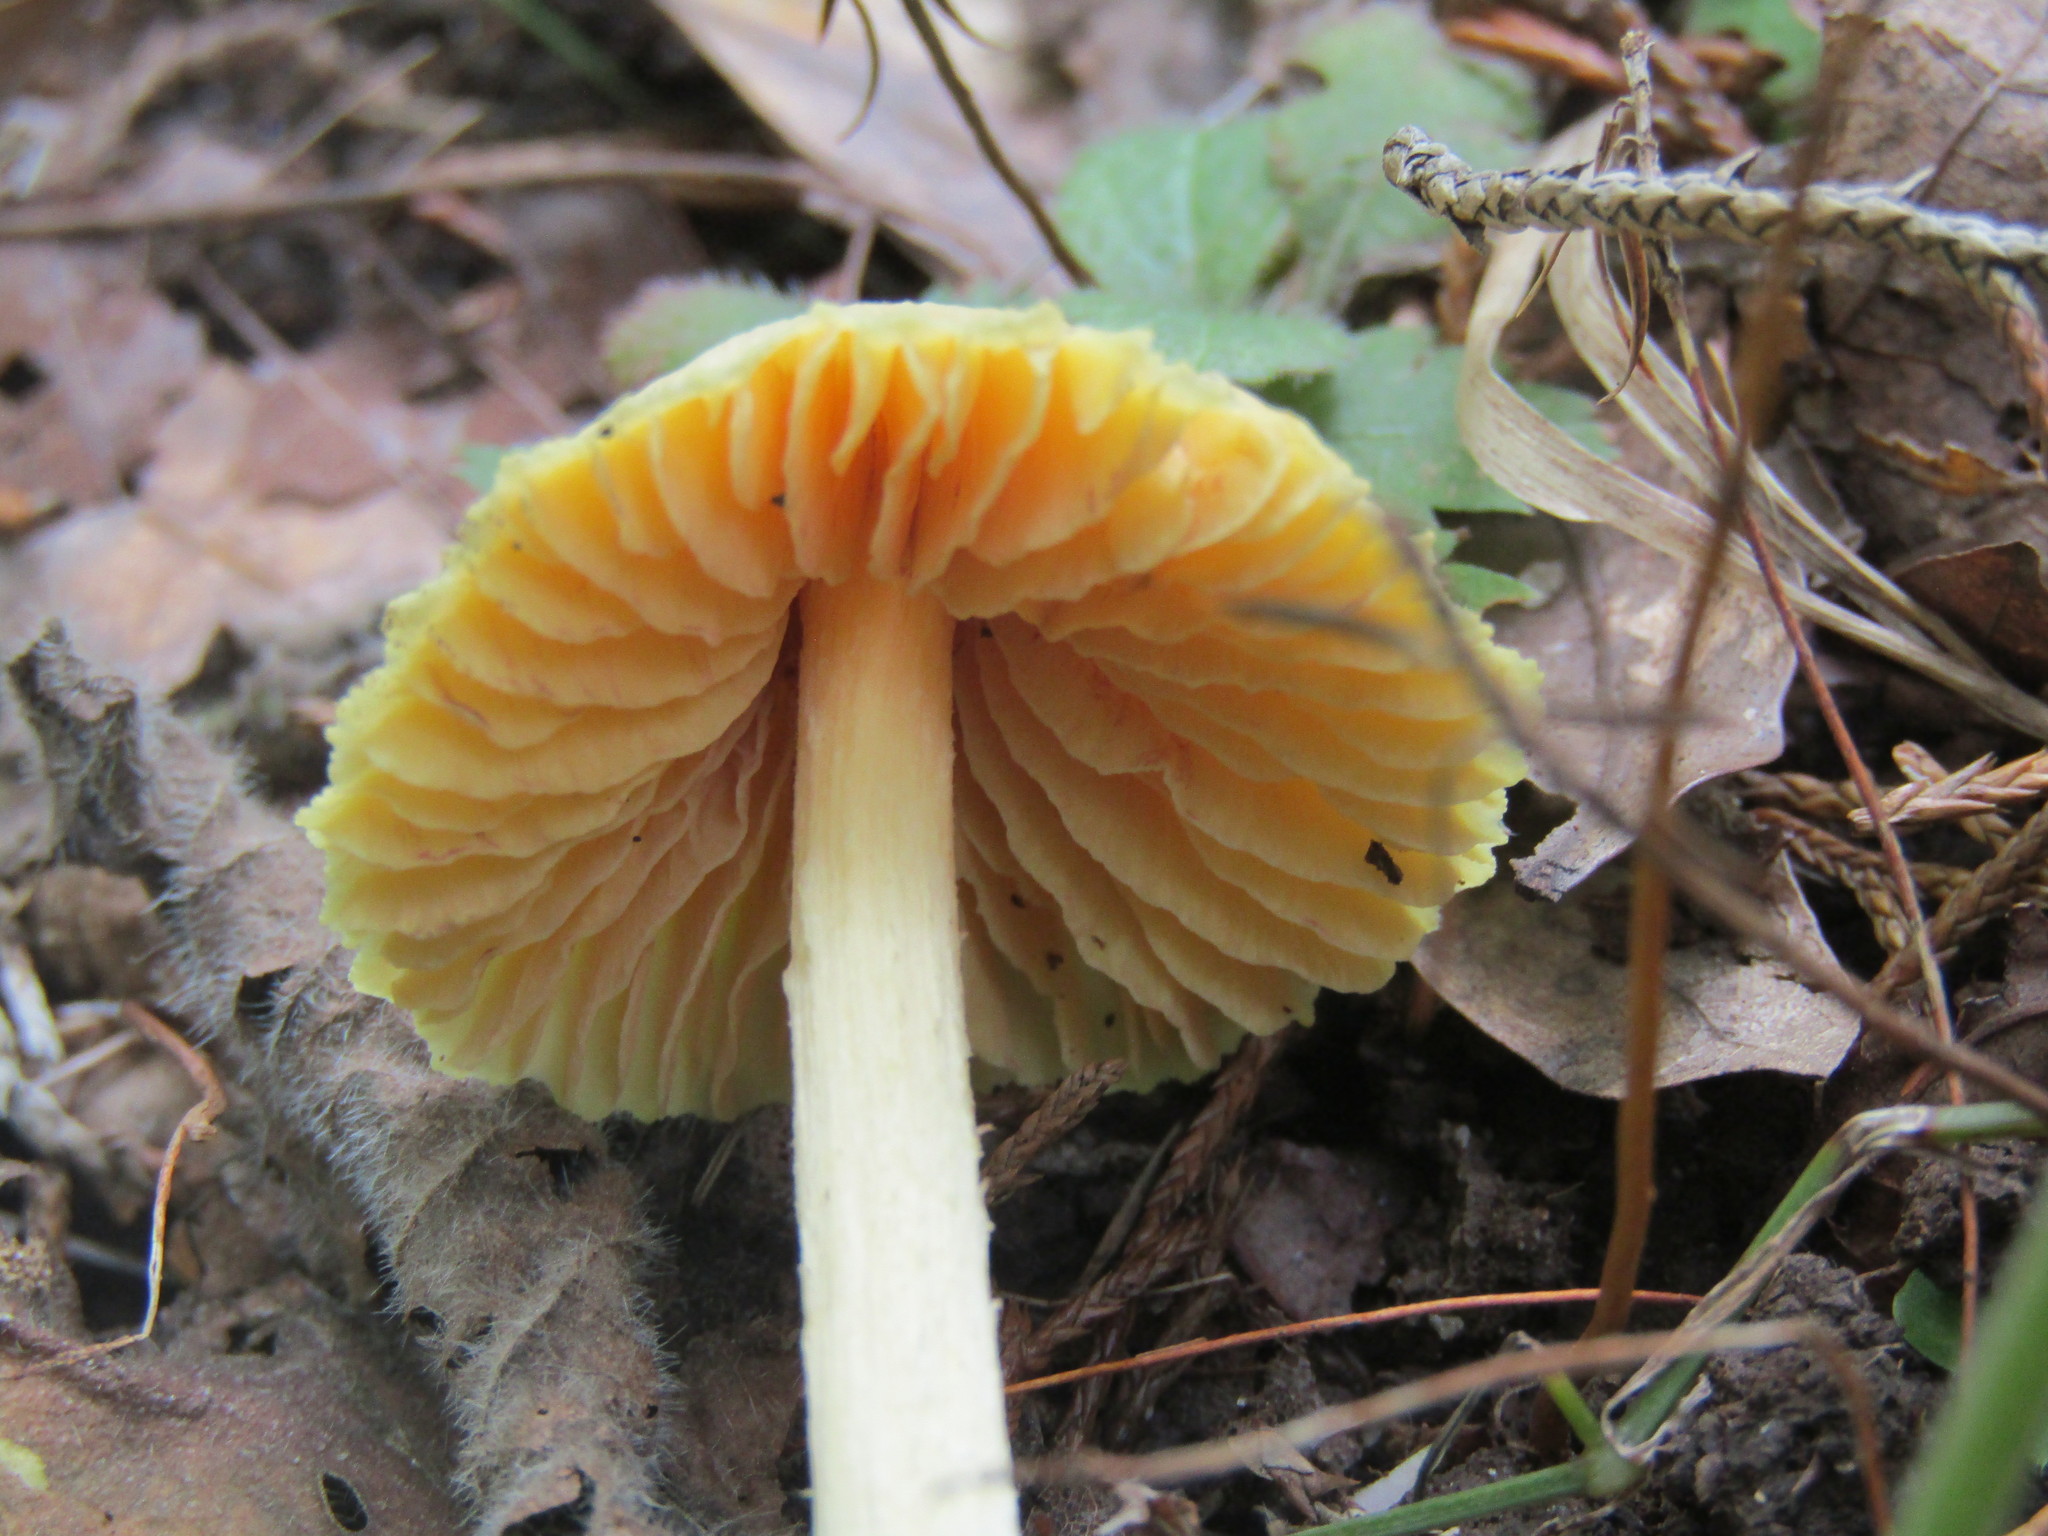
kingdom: Fungi
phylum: Basidiomycota
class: Agaricomycetes
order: Agaricales
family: Entolomataceae
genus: Entoloma
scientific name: Entoloma murrayi
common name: Yellow unicorn entoloma
